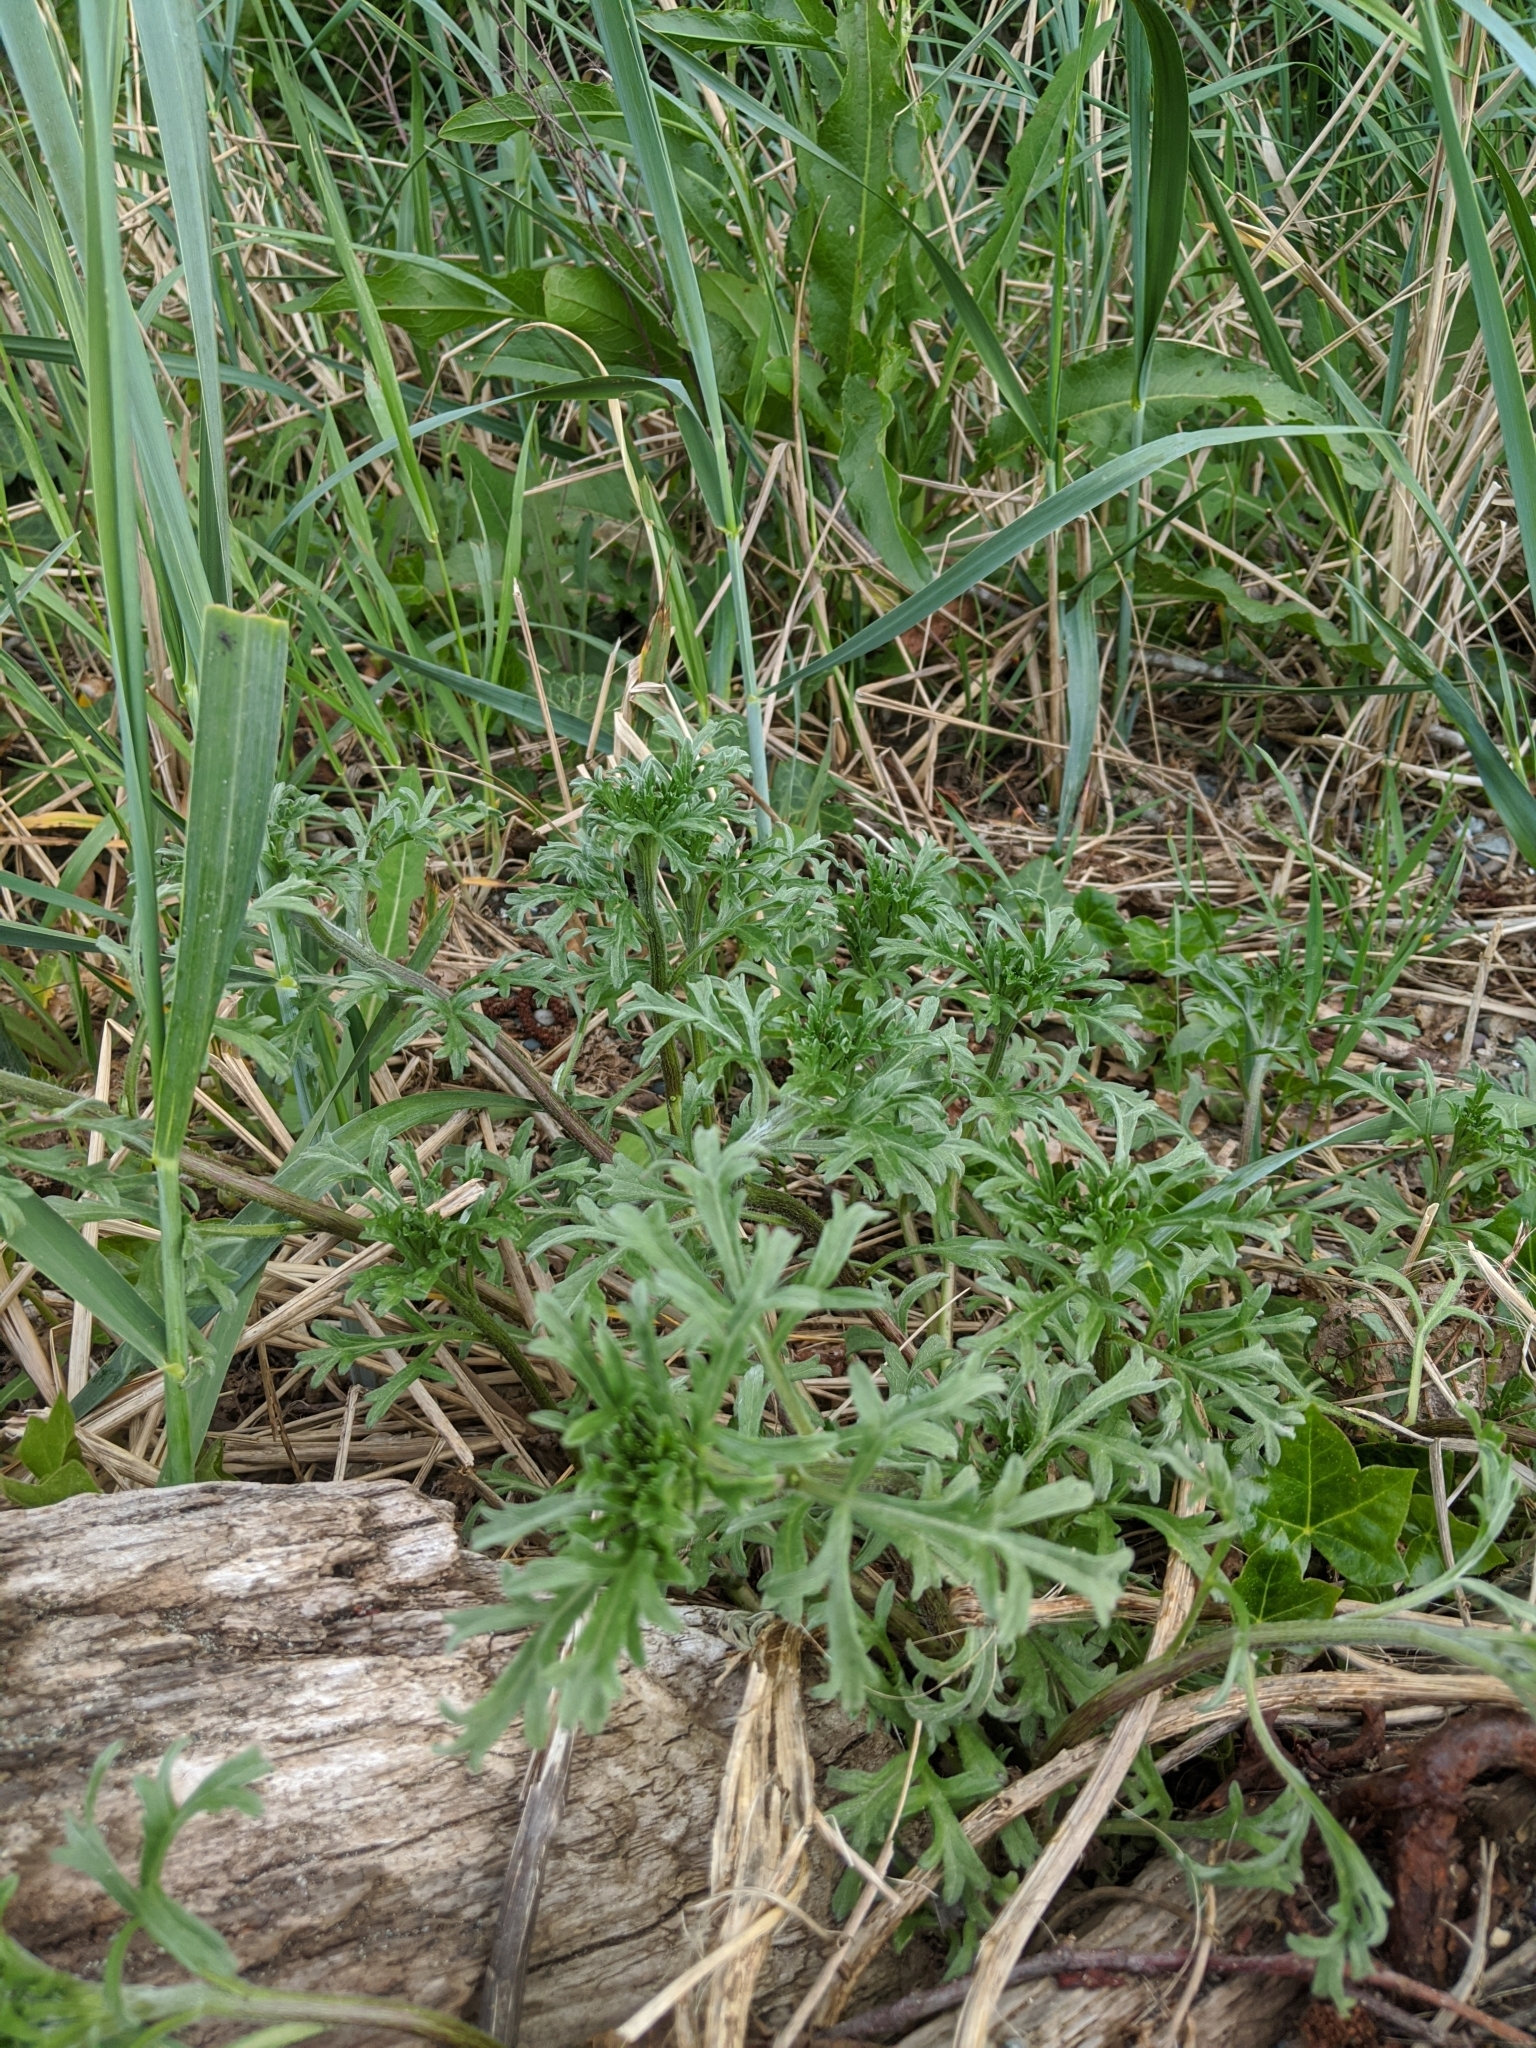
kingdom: Plantae
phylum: Tracheophyta
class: Magnoliopsida
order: Asterales
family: Asteraceae
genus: Ambrosia
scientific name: Ambrosia chamissonis
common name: Beachbur
